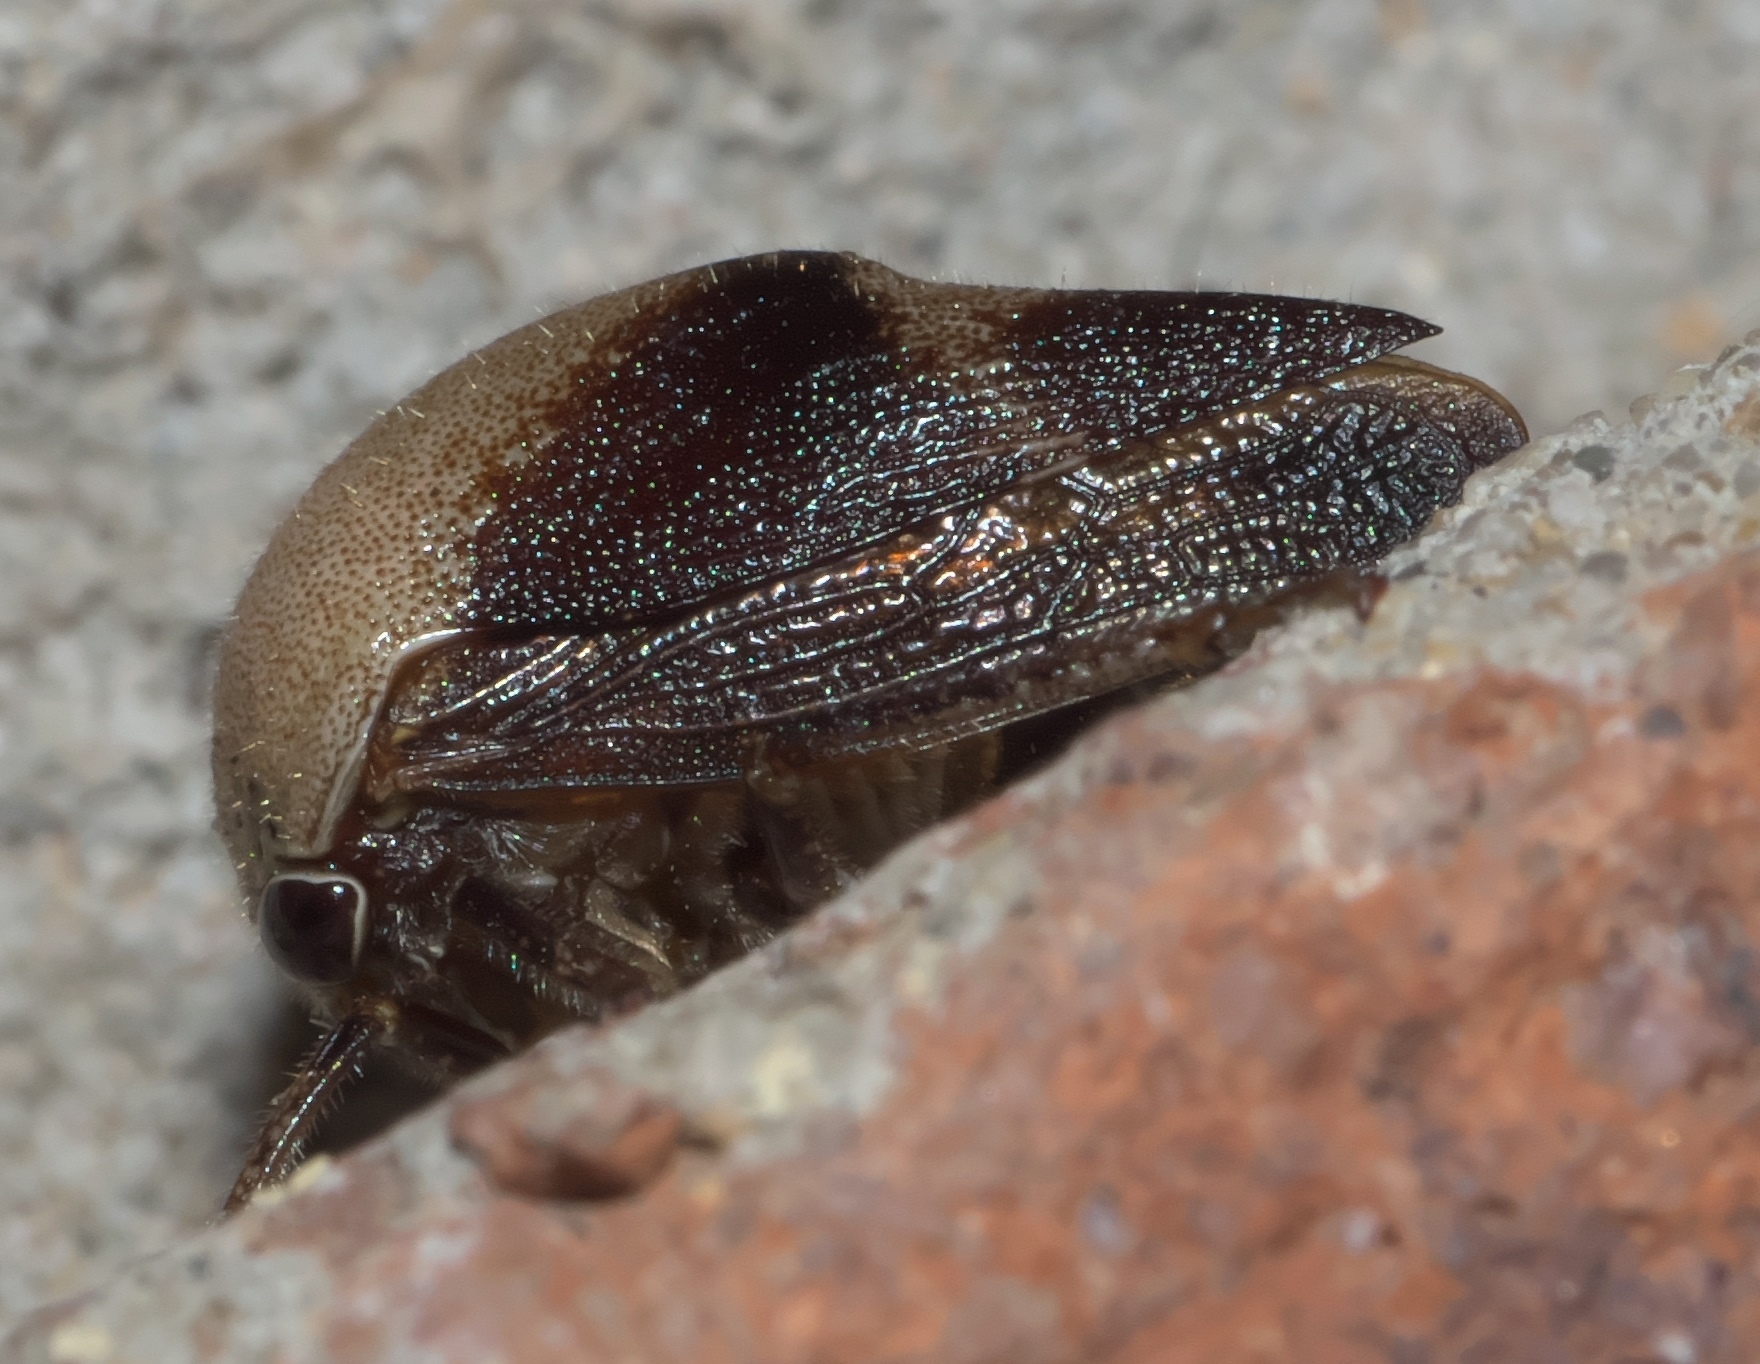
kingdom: Animalia
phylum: Arthropoda
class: Insecta
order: Hemiptera
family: Membracidae
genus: Carynota
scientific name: Carynota mera
